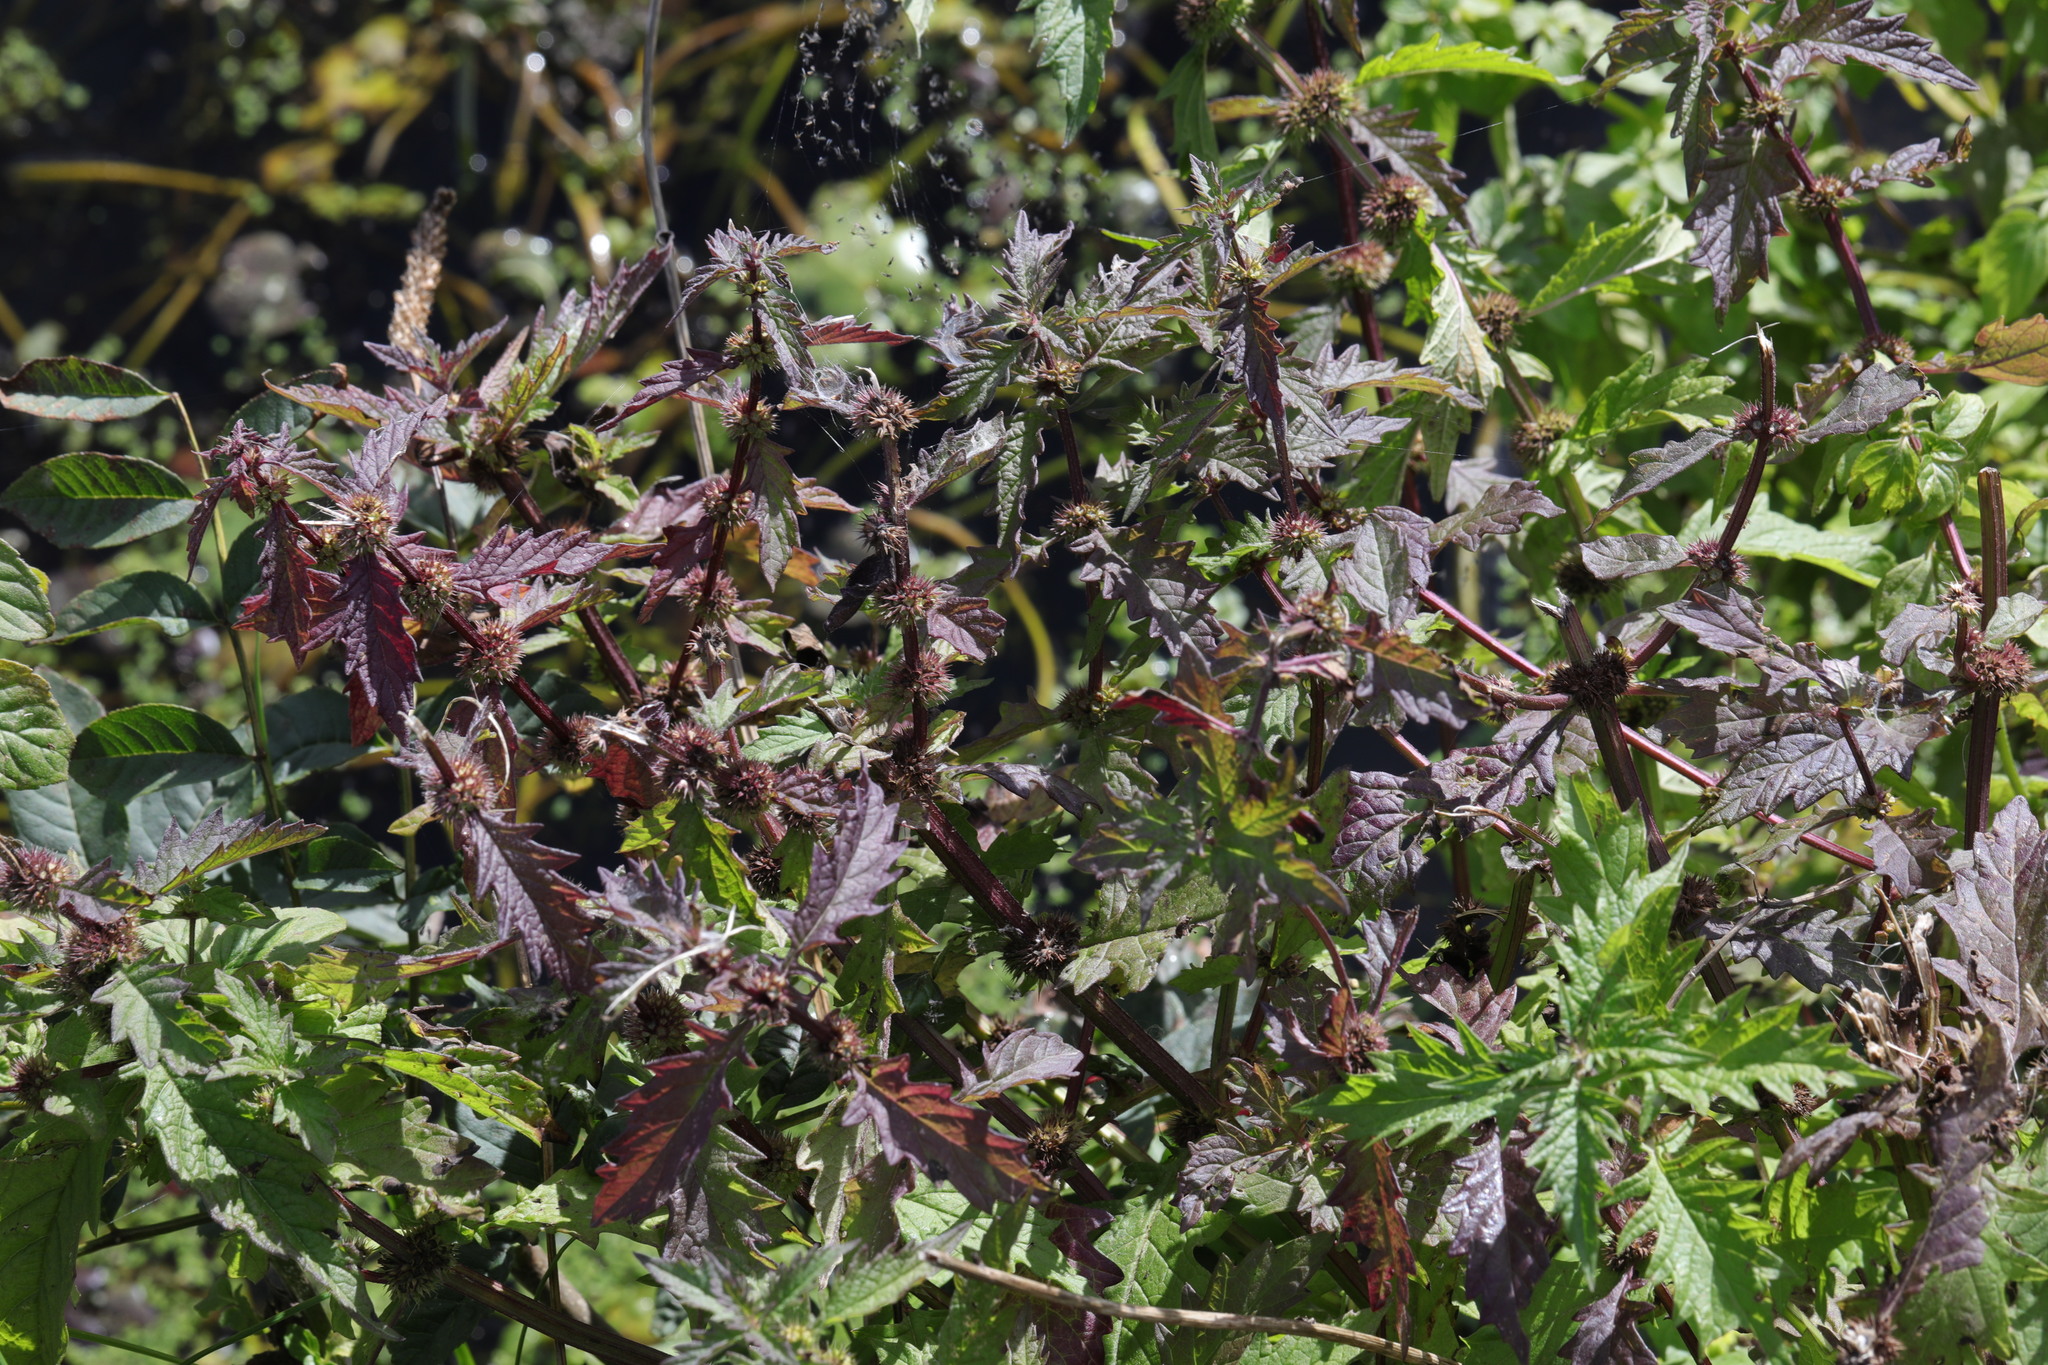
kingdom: Plantae
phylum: Tracheophyta
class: Magnoliopsida
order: Lamiales
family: Lamiaceae
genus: Lycopus
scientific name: Lycopus europaeus
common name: European bugleweed
